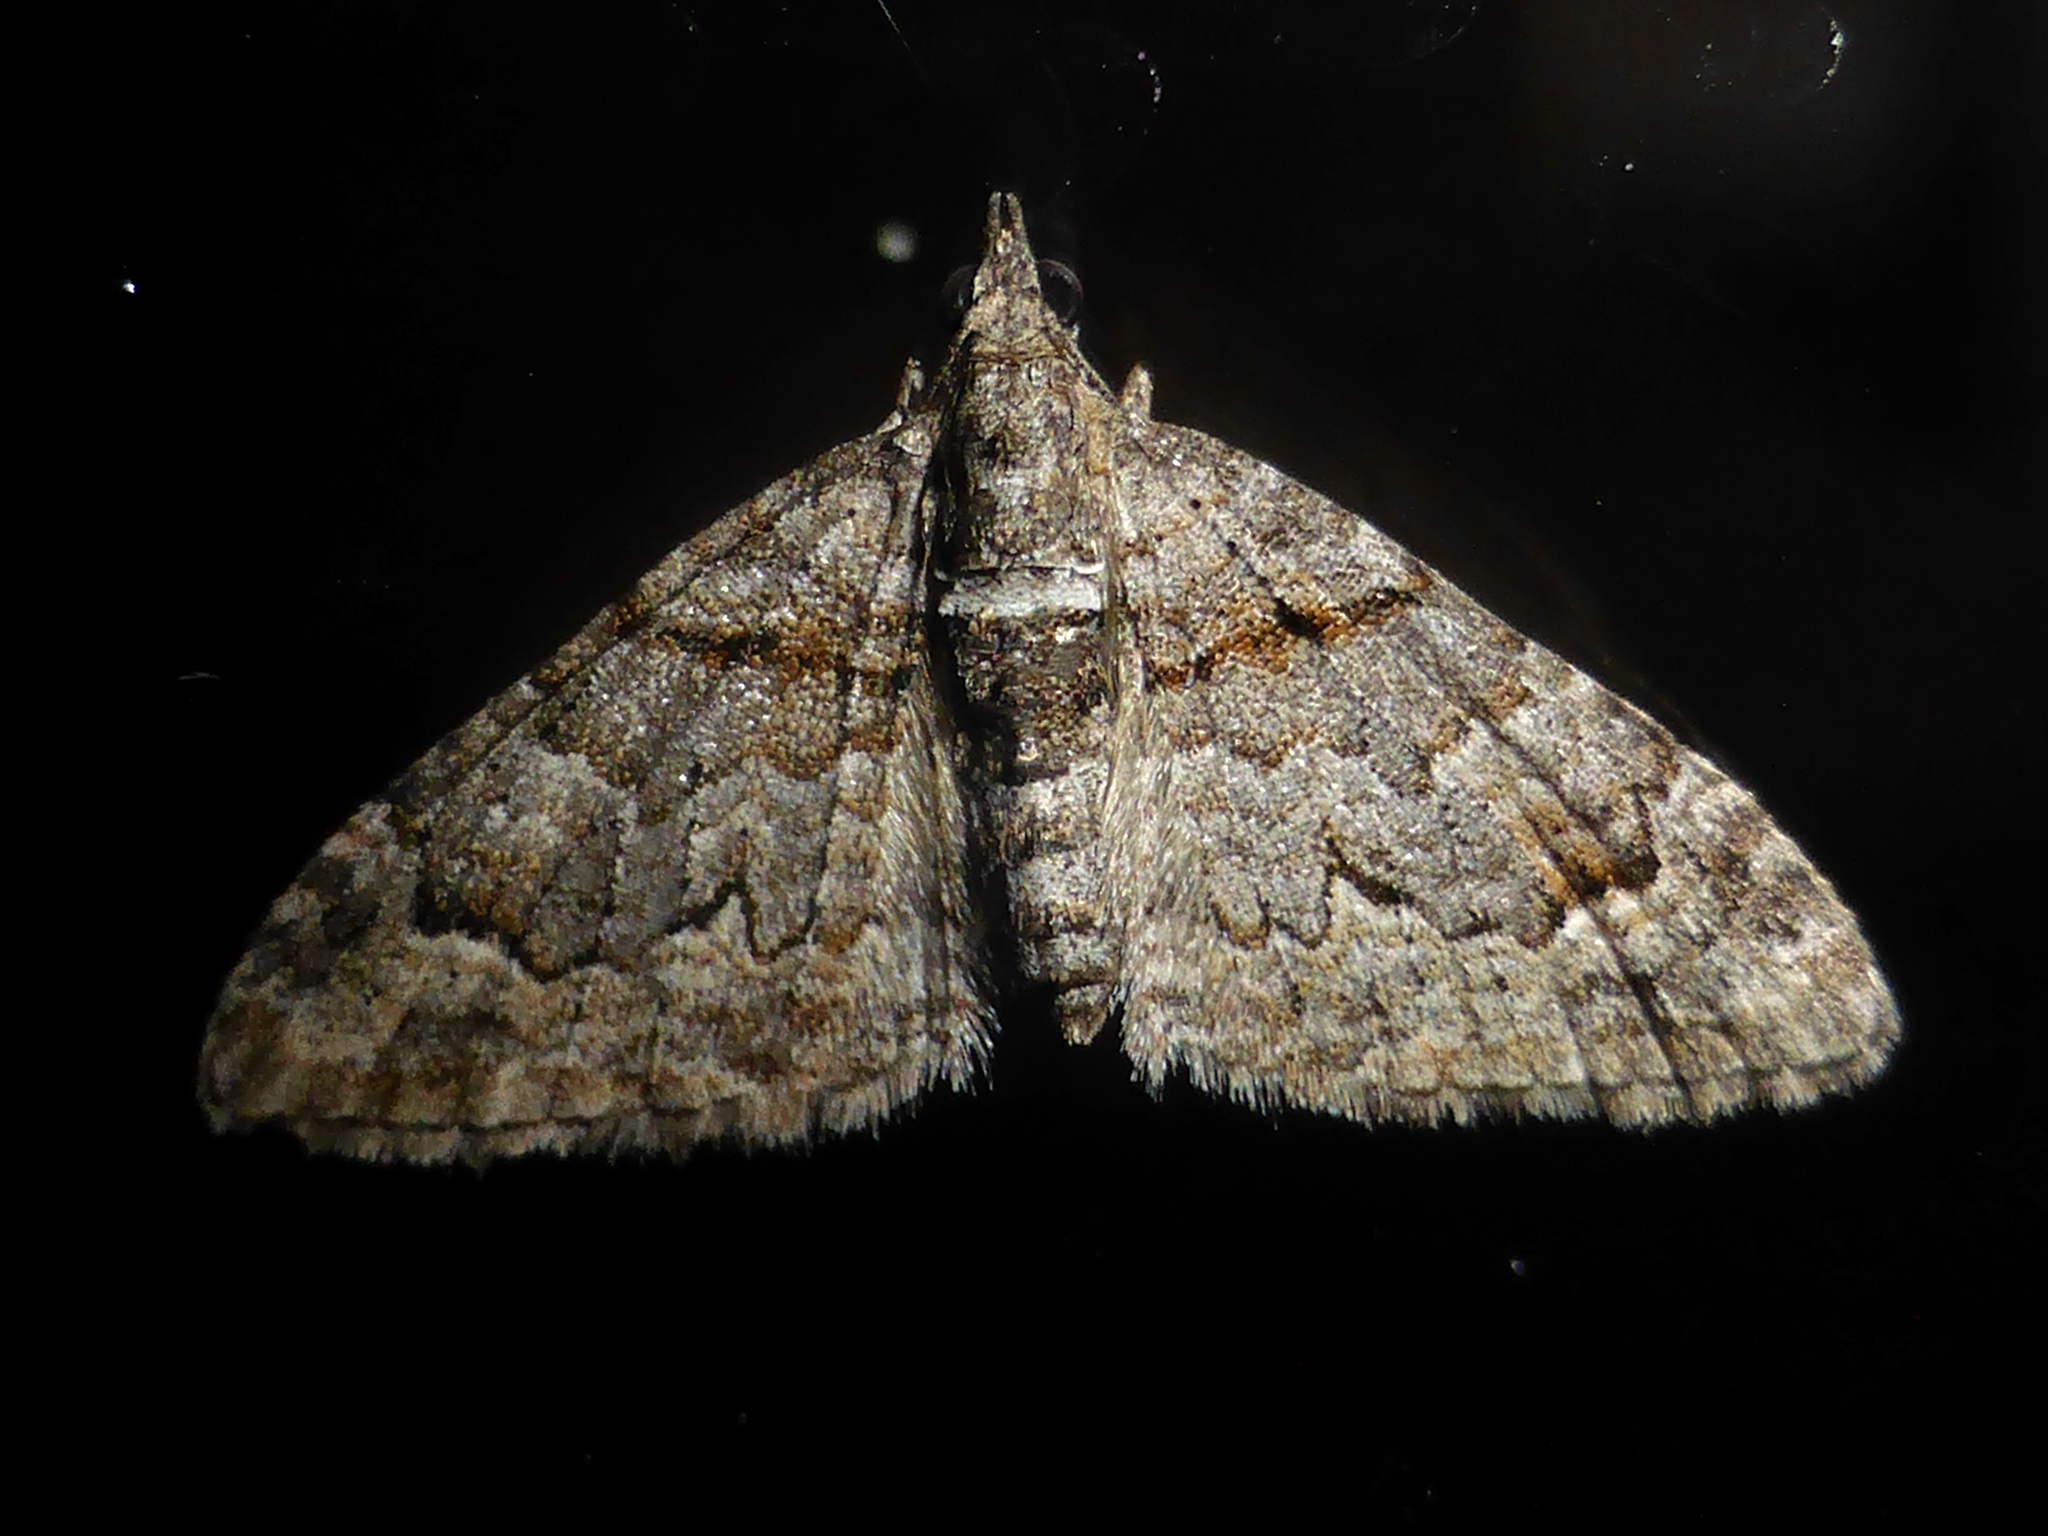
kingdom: Animalia
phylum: Arthropoda
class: Insecta
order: Lepidoptera
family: Geometridae
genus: Phrissogonus
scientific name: Phrissogonus laticostata
